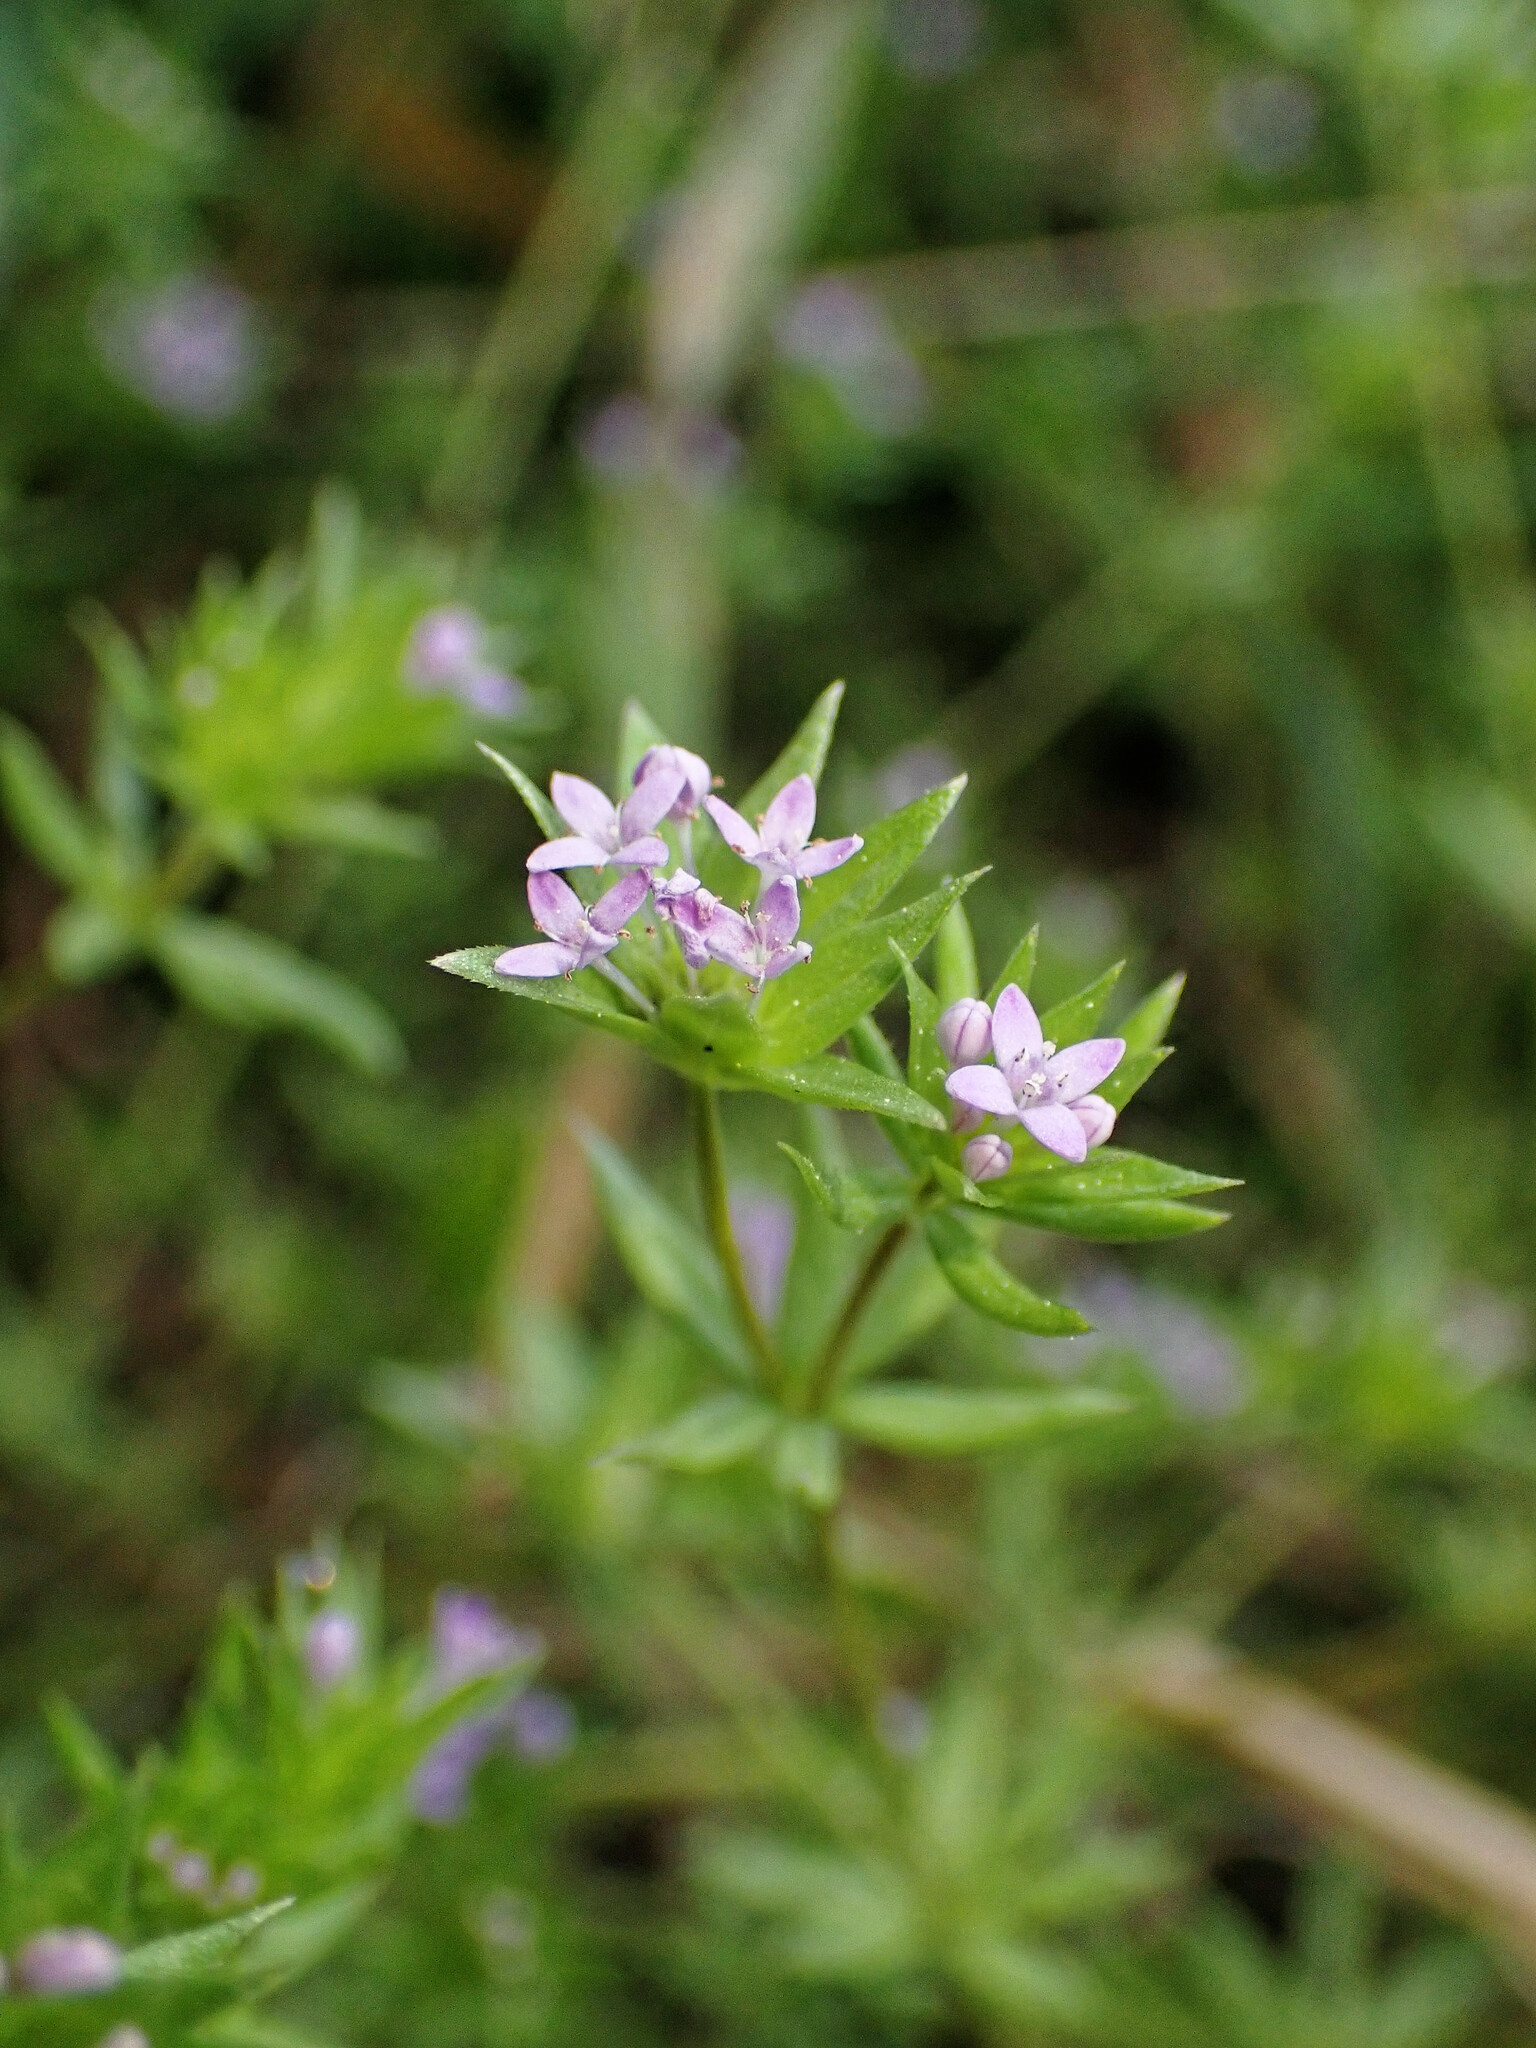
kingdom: Plantae
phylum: Tracheophyta
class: Magnoliopsida
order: Gentianales
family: Rubiaceae
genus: Sherardia
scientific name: Sherardia arvensis
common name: Field madder
